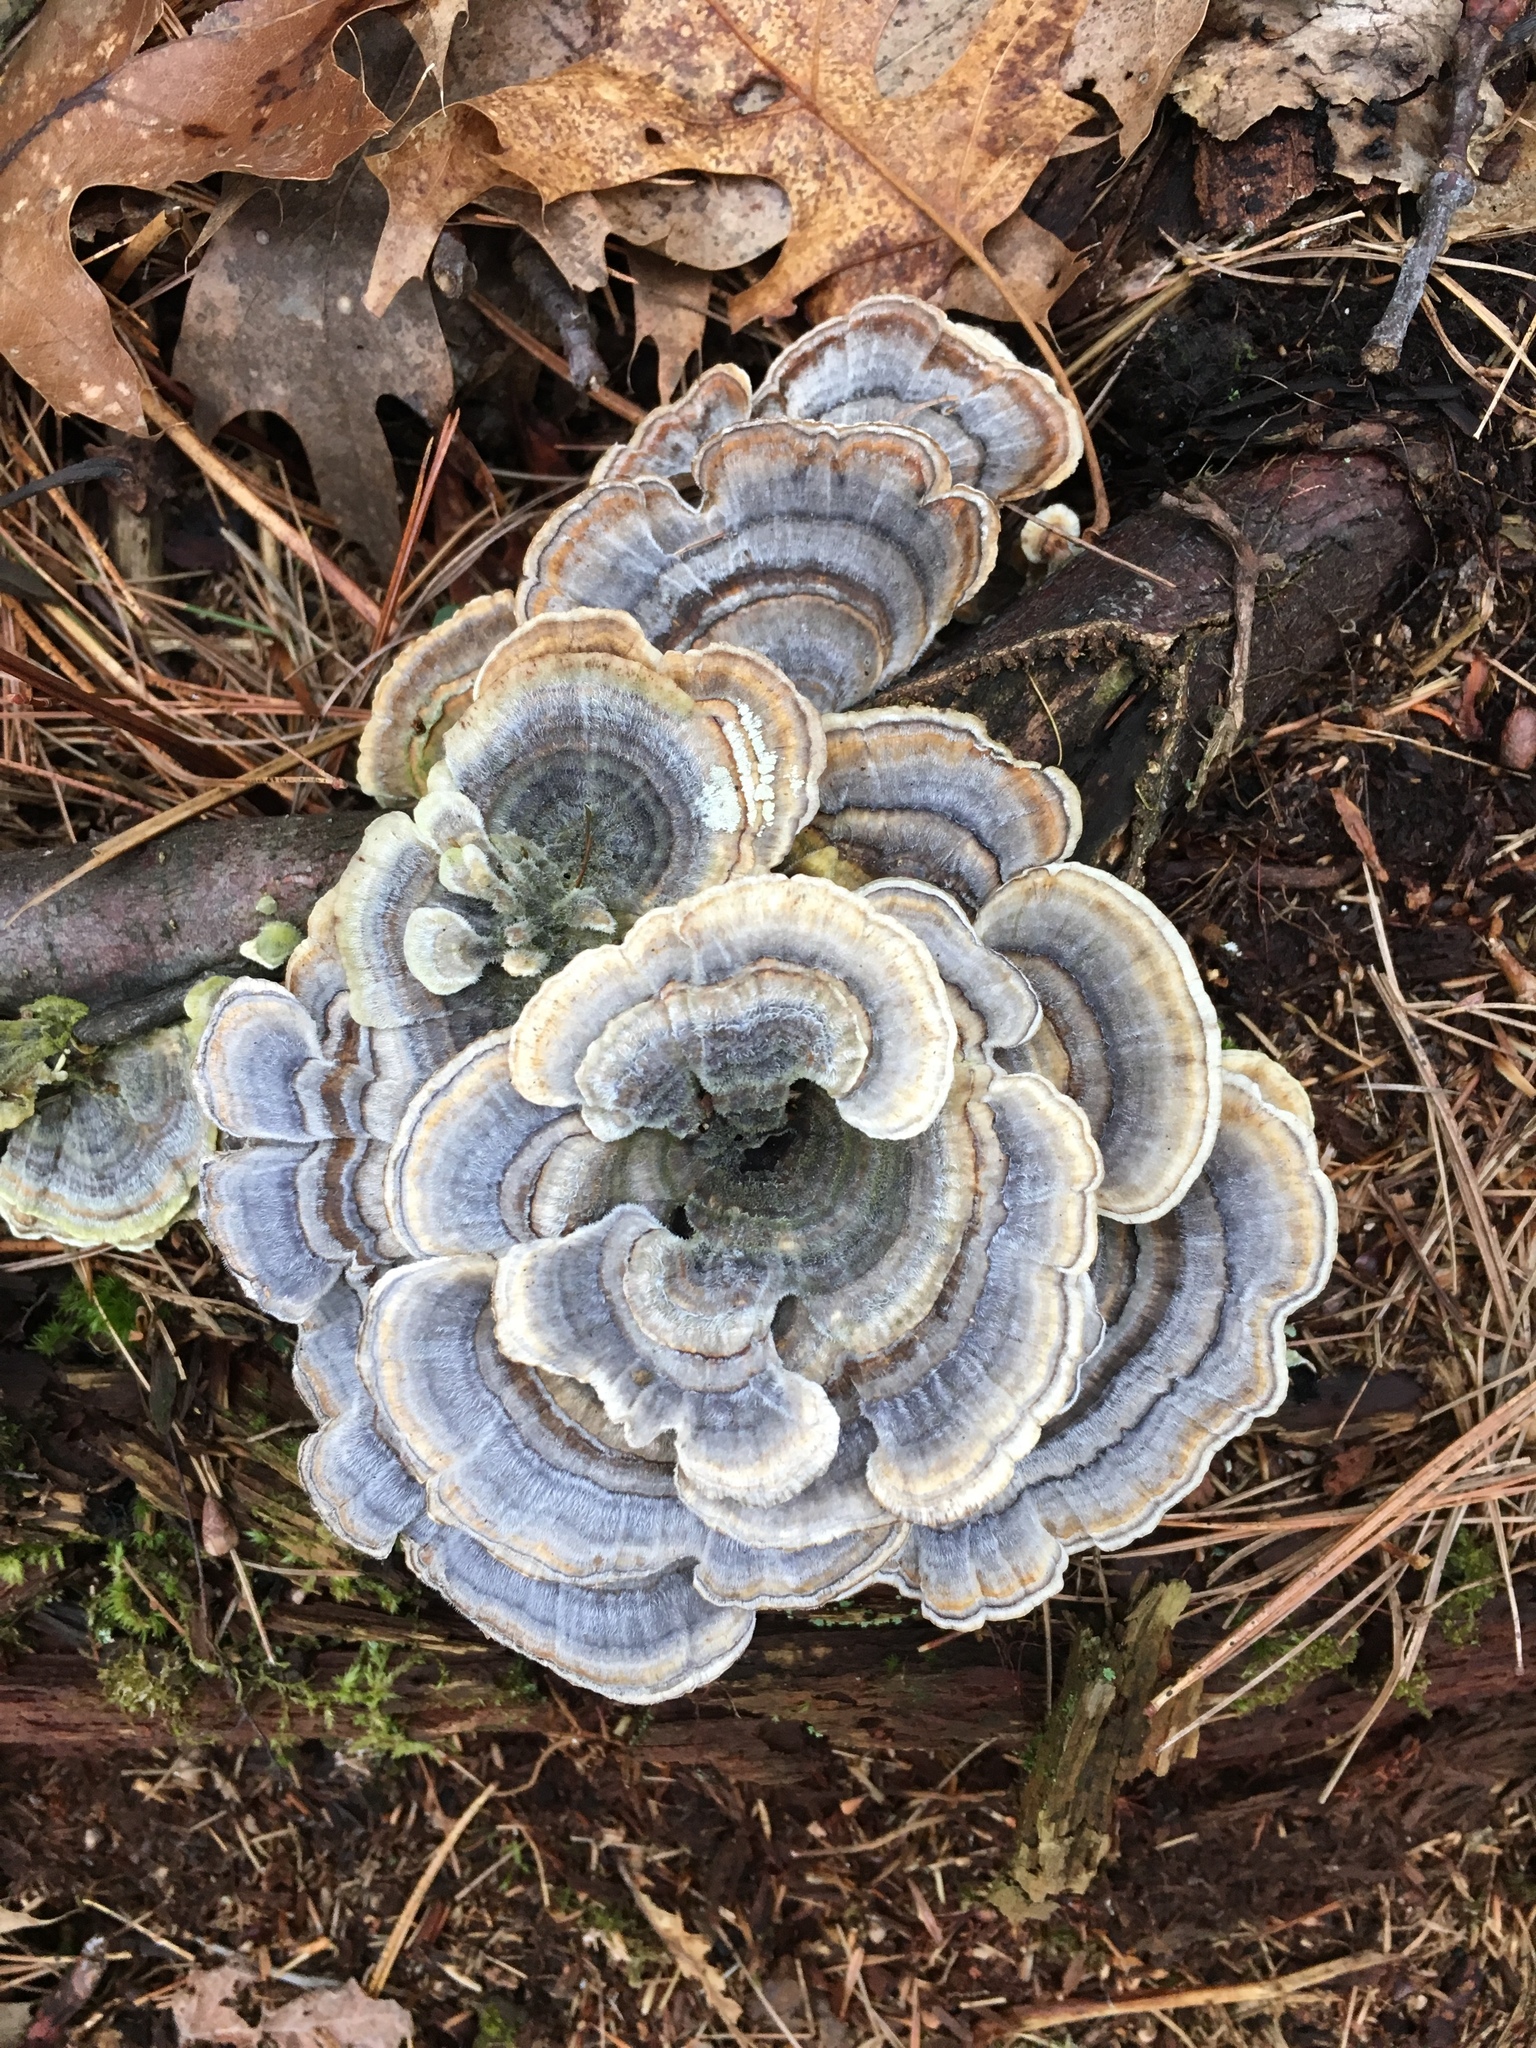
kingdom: Fungi
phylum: Basidiomycota
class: Agaricomycetes
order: Polyporales
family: Polyporaceae
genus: Trametes
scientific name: Trametes versicolor
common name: Turkeytail
